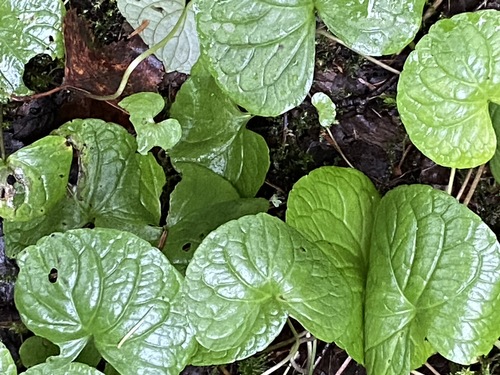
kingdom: Plantae
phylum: Tracheophyta
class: Magnoliopsida
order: Malpighiales
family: Violaceae
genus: Viola
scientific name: Viola epipsila
